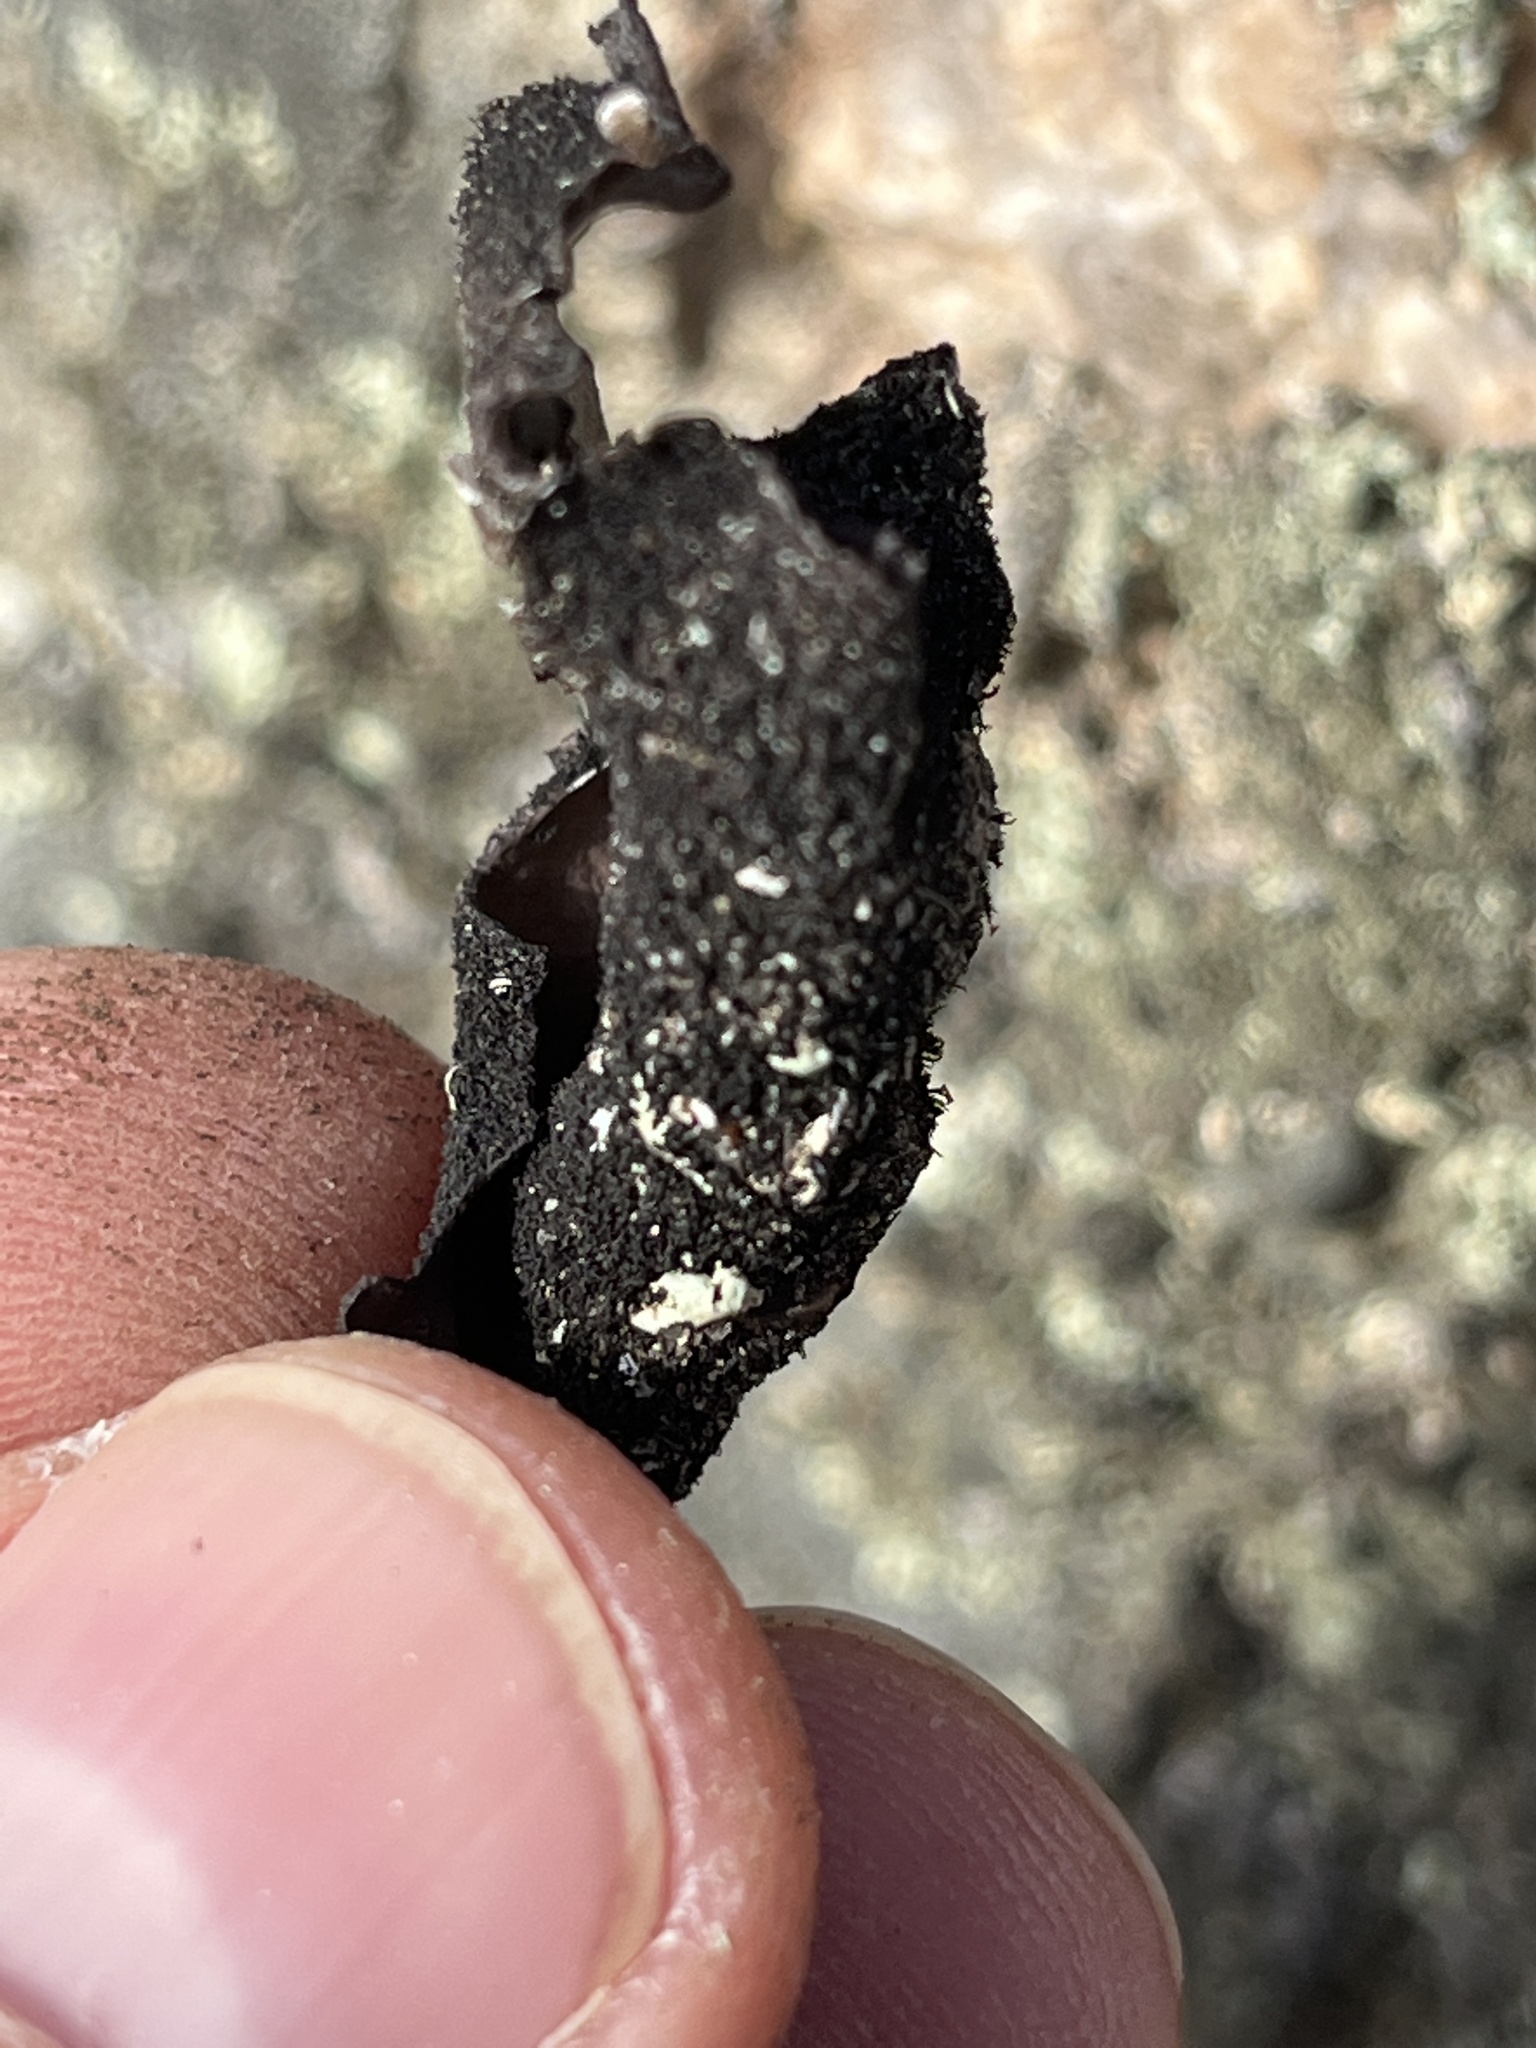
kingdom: Fungi
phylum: Ascomycota
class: Lecanoromycetes
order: Umbilicariales
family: Umbilicariaceae
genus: Umbilicaria
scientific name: Umbilicaria muhlenbergii
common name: Lesser rocktripe
